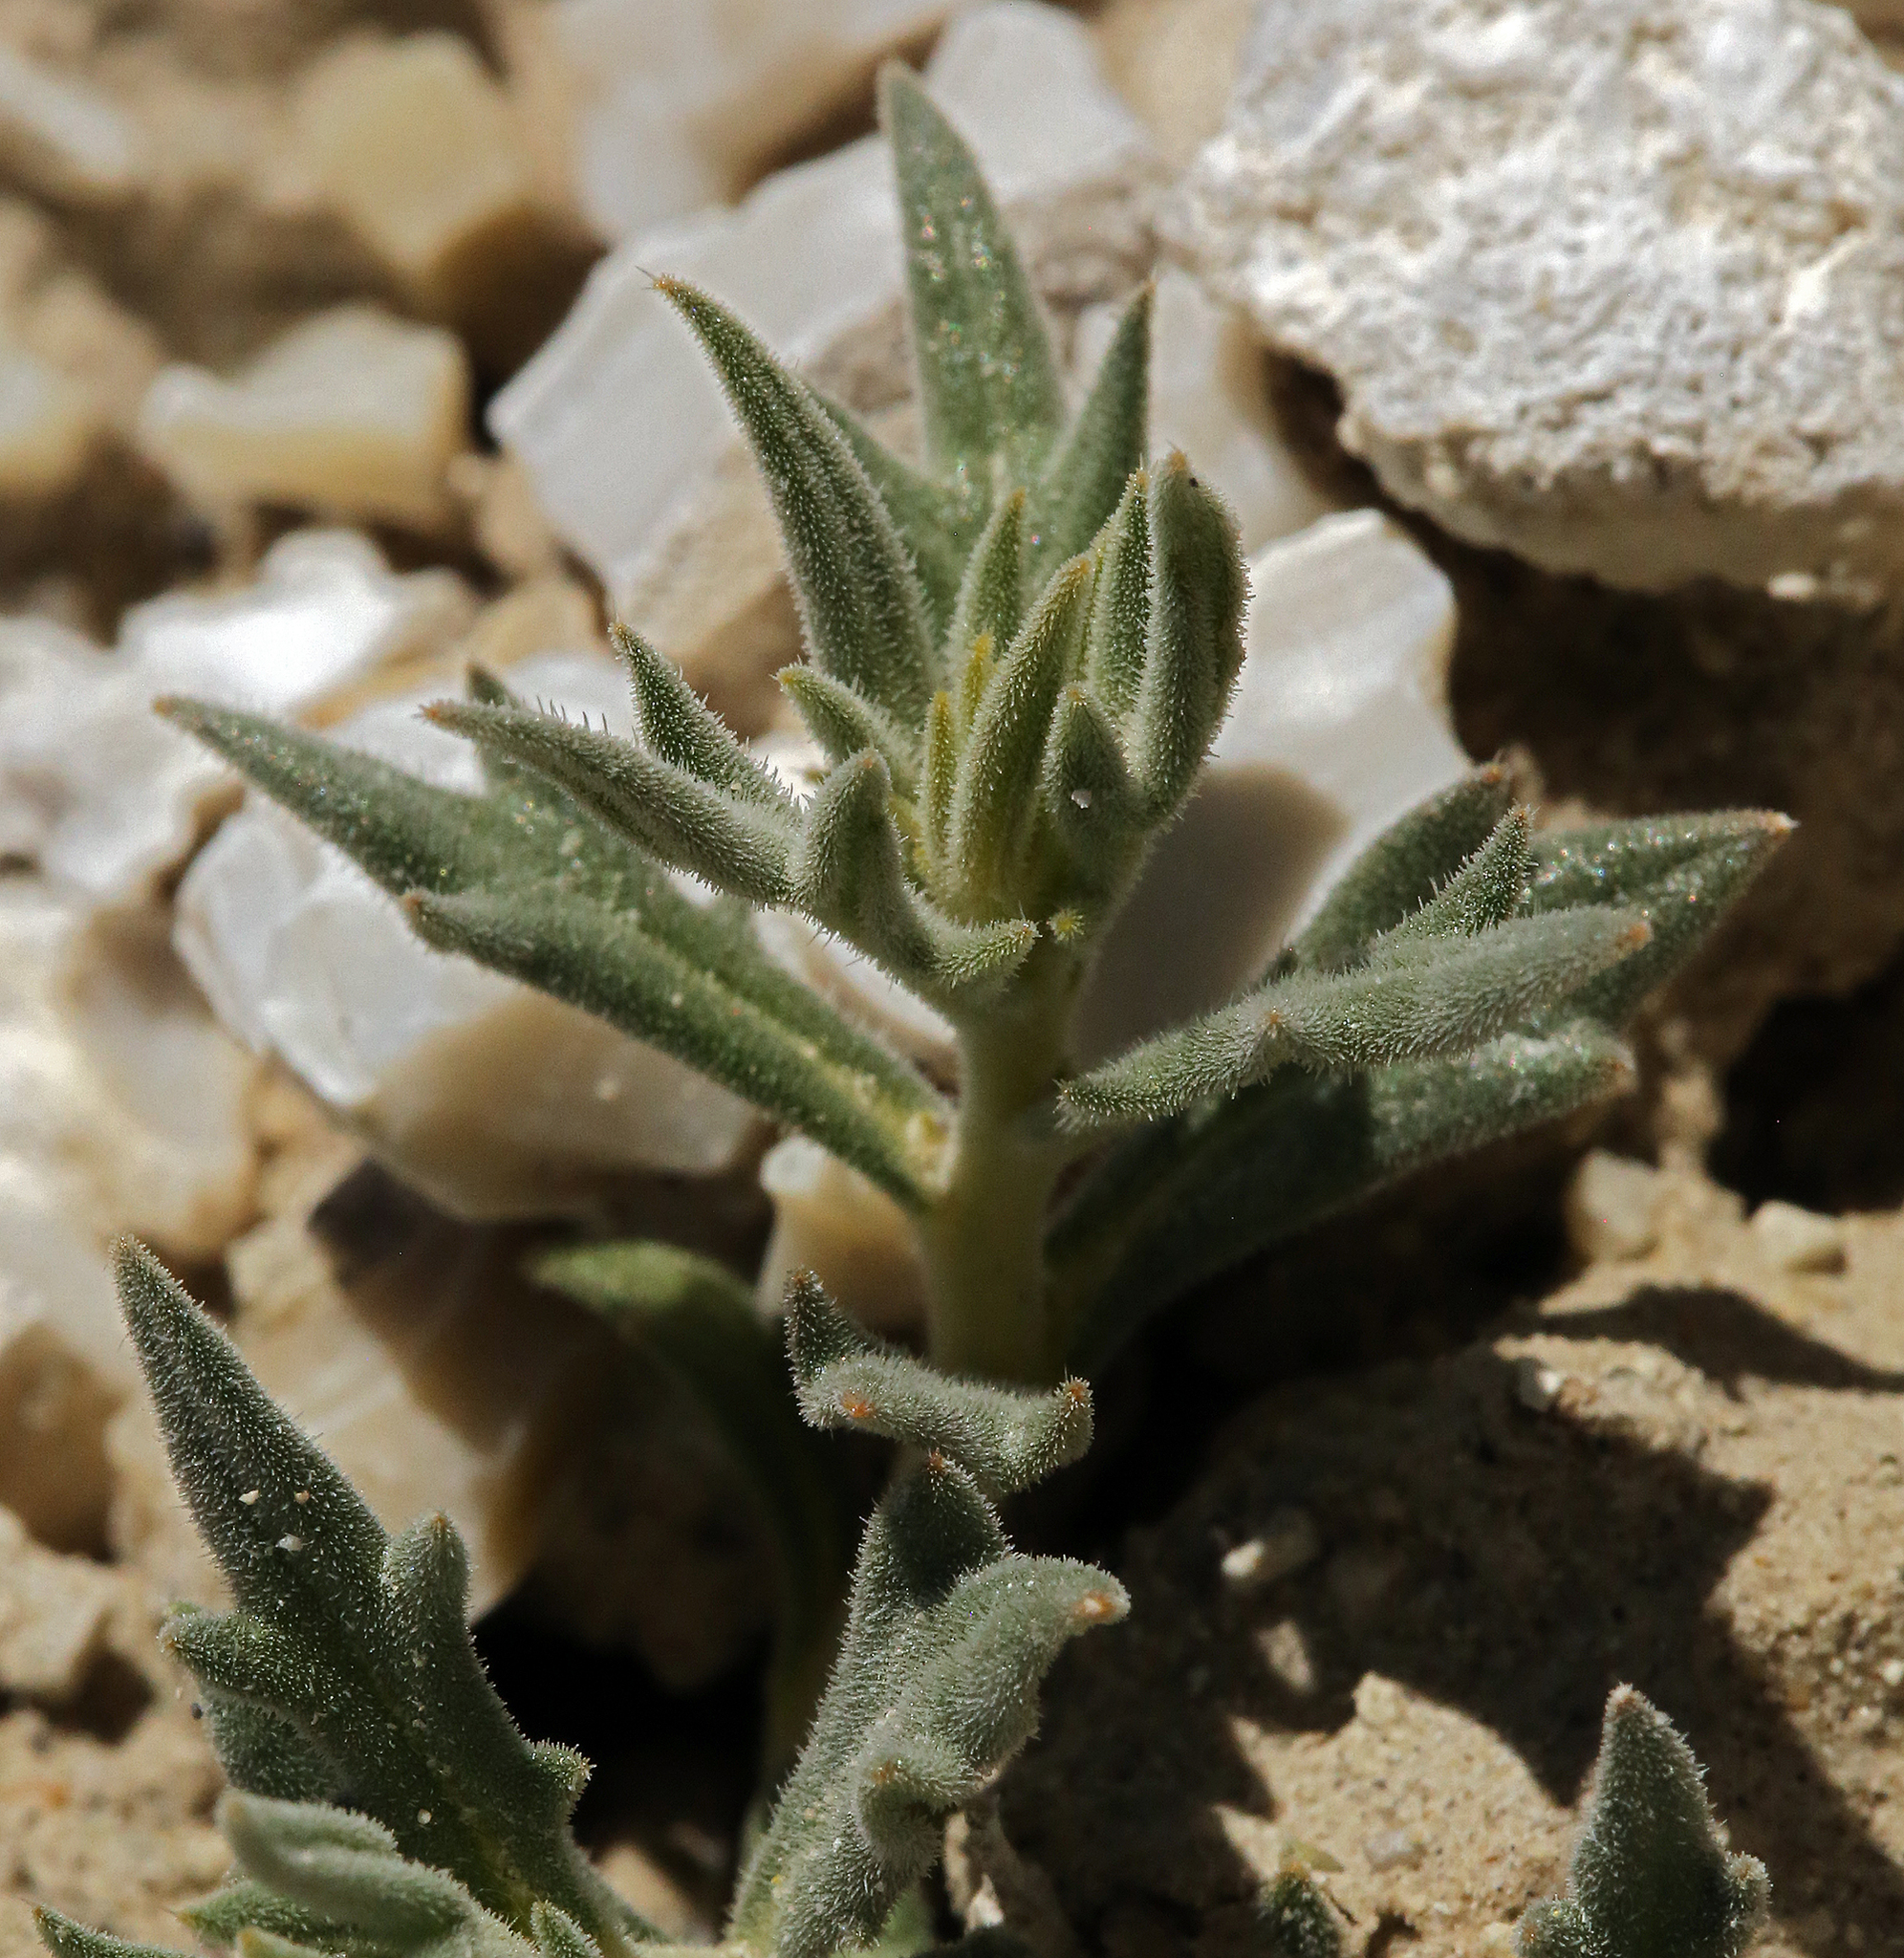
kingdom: Plantae
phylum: Tracheophyta
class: Magnoliopsida
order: Cornales
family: Loasaceae
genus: Mentzelia
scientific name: Mentzelia torreyi
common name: Torrey's blazingstar
